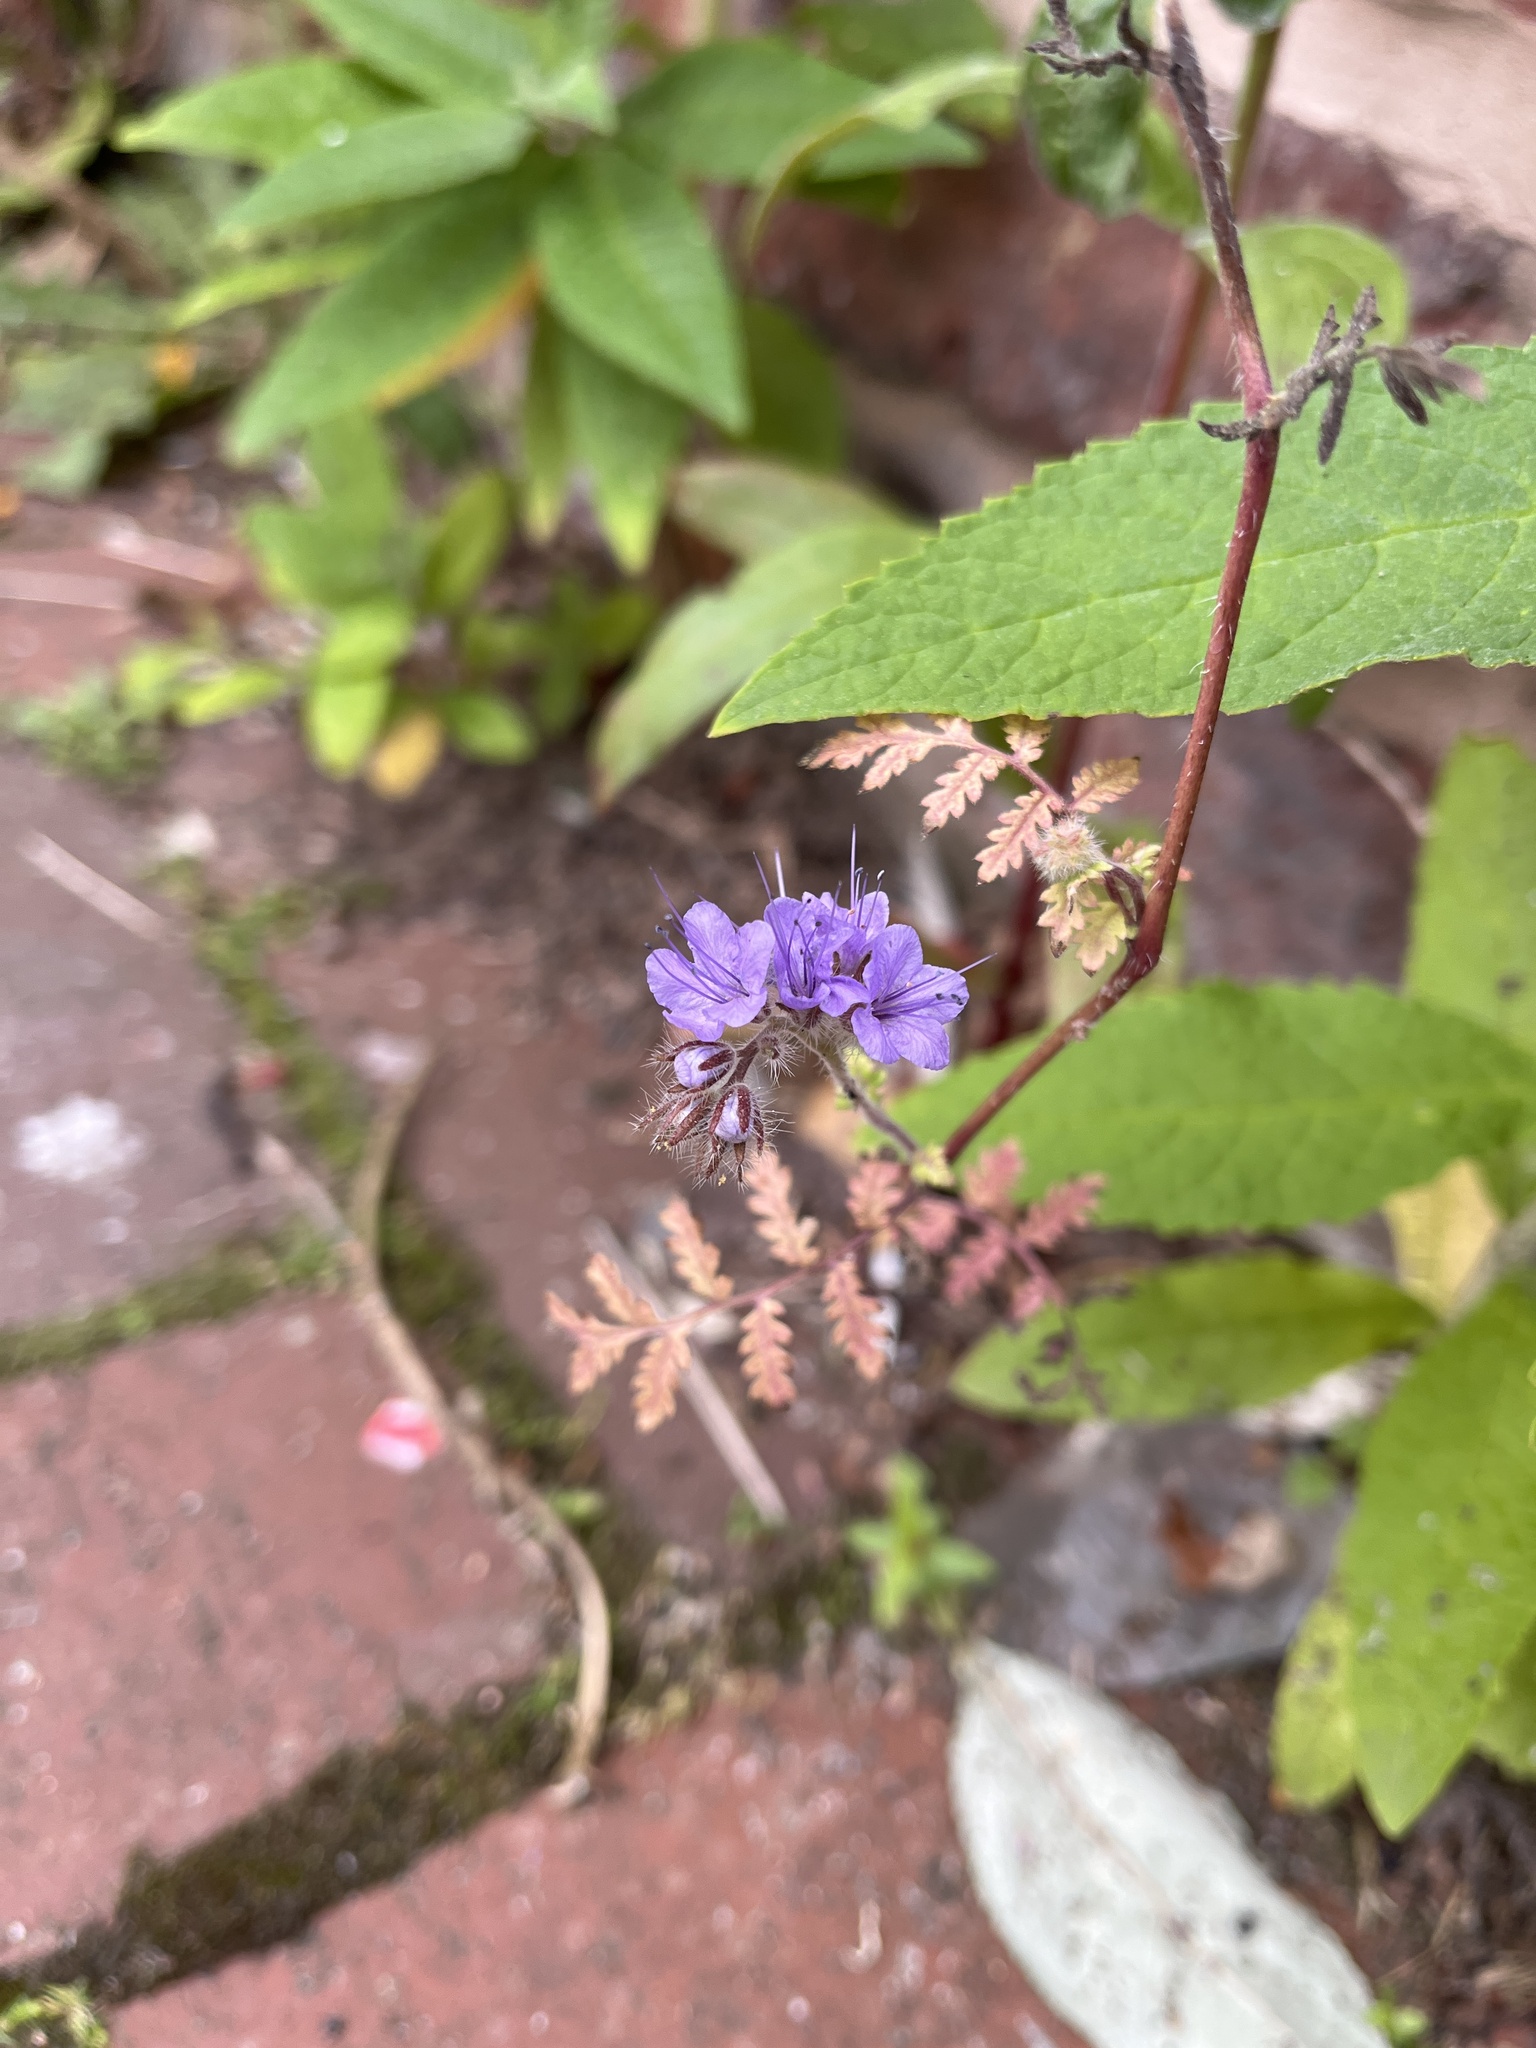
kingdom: Plantae
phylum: Tracheophyta
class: Magnoliopsida
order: Boraginales
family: Hydrophyllaceae
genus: Phacelia
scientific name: Phacelia tanacetifolia
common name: Phacelia
